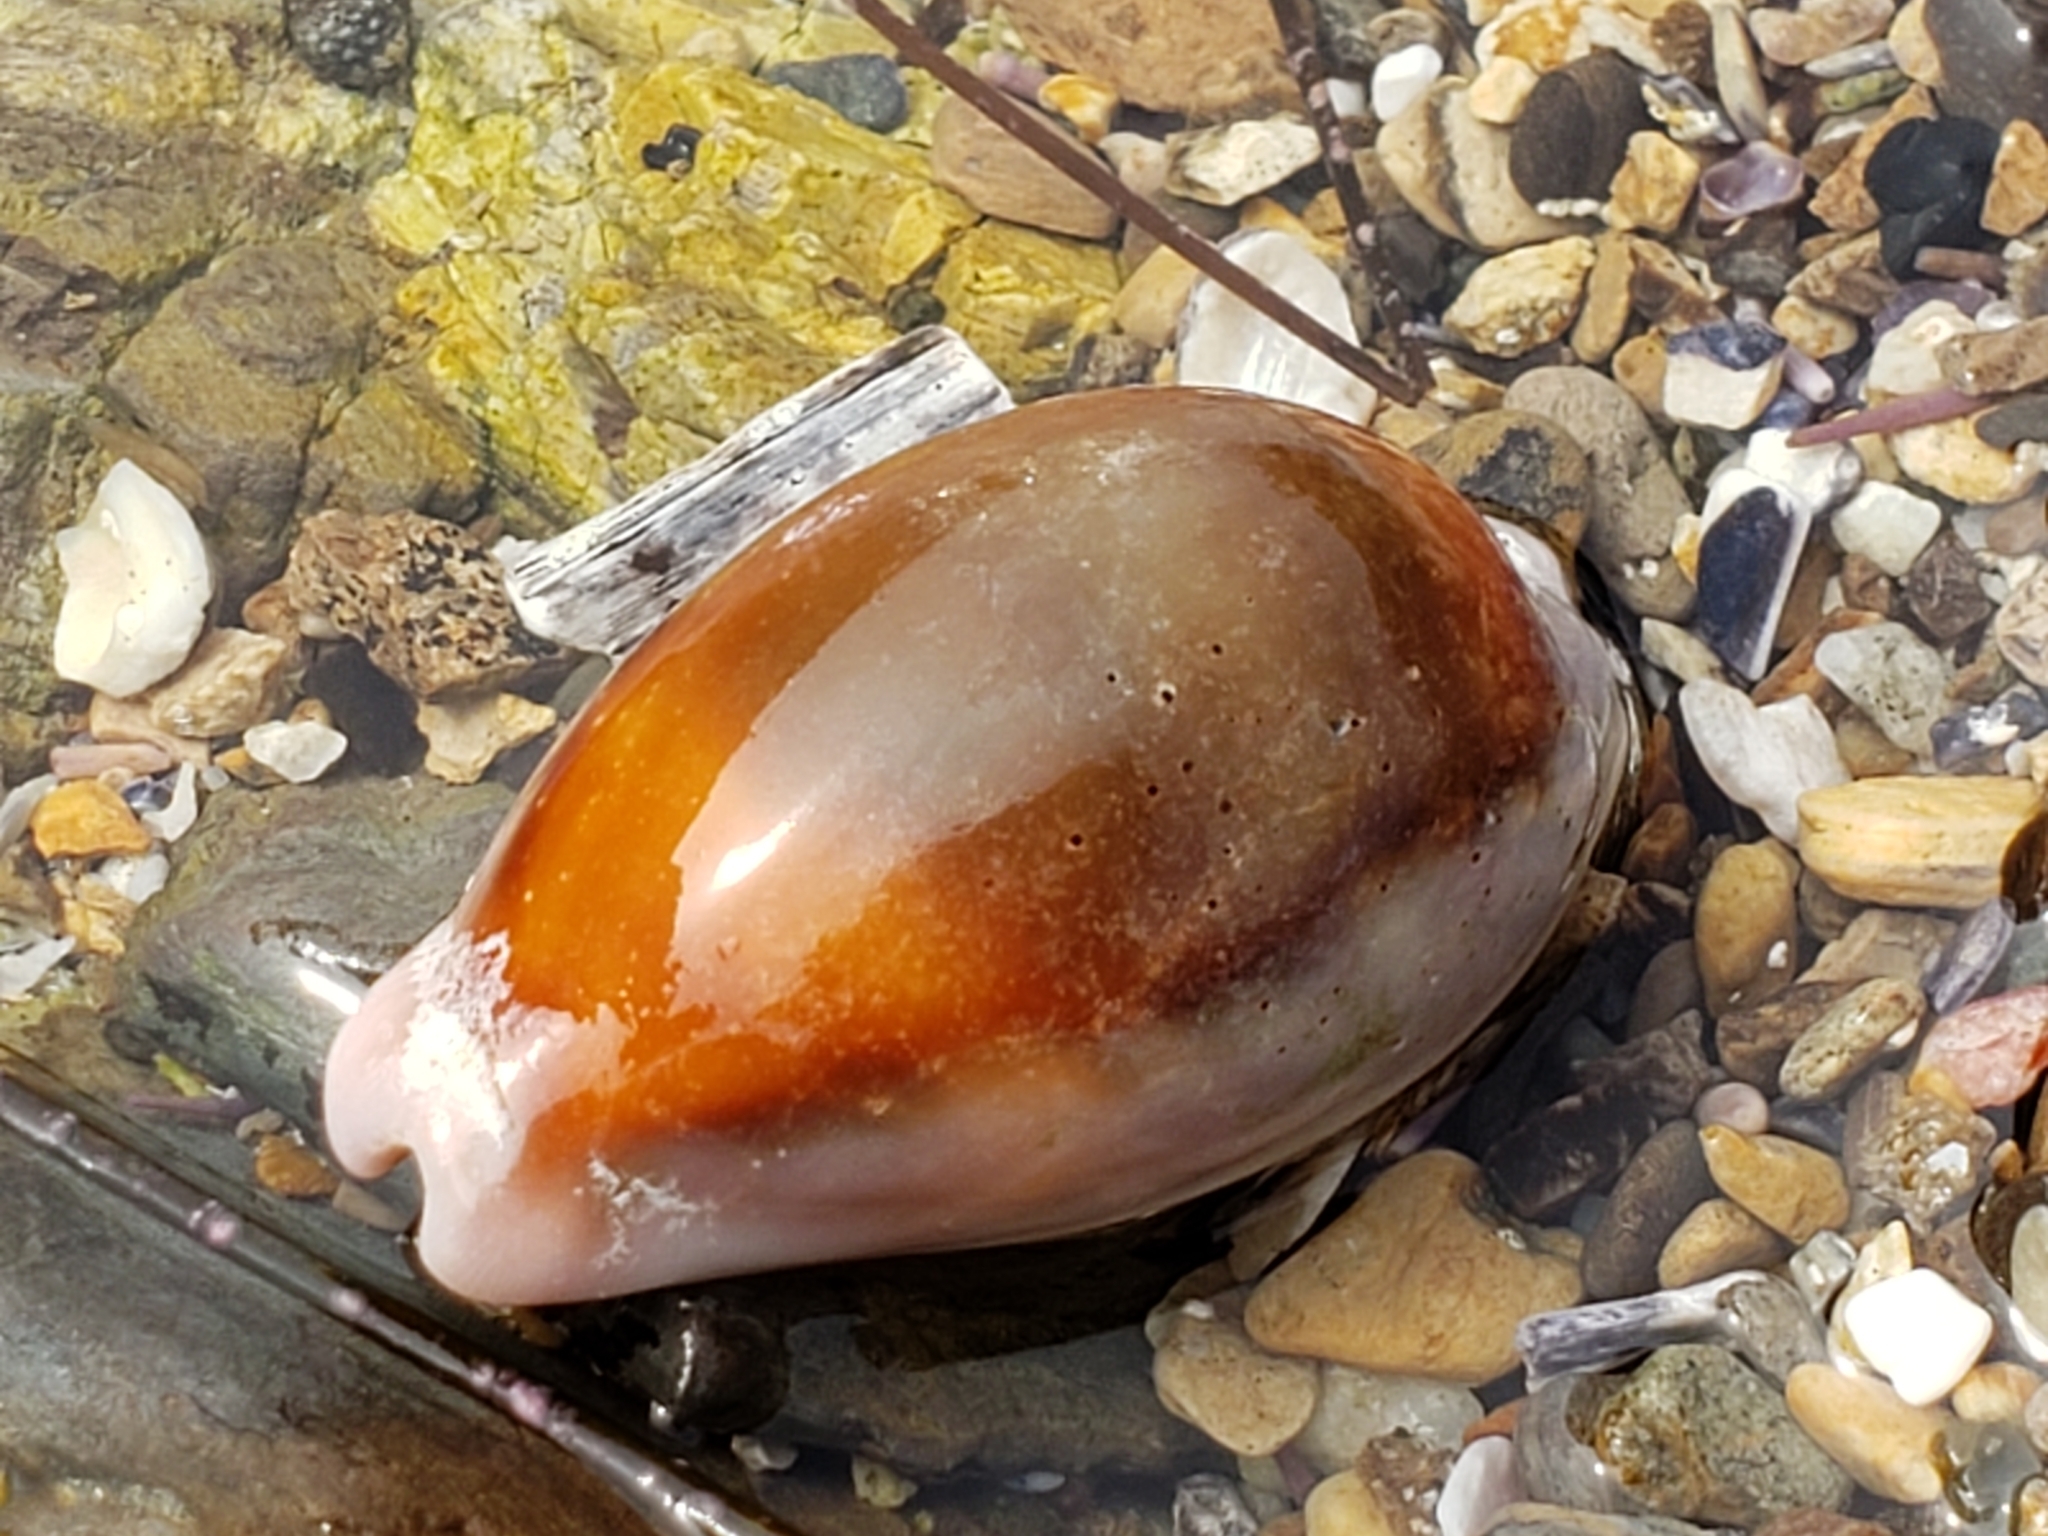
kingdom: Animalia
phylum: Mollusca
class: Gastropoda
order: Littorinimorpha
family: Cypraeidae
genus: Neobernaya
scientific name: Neobernaya spadicea
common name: Chestnut cowrie
